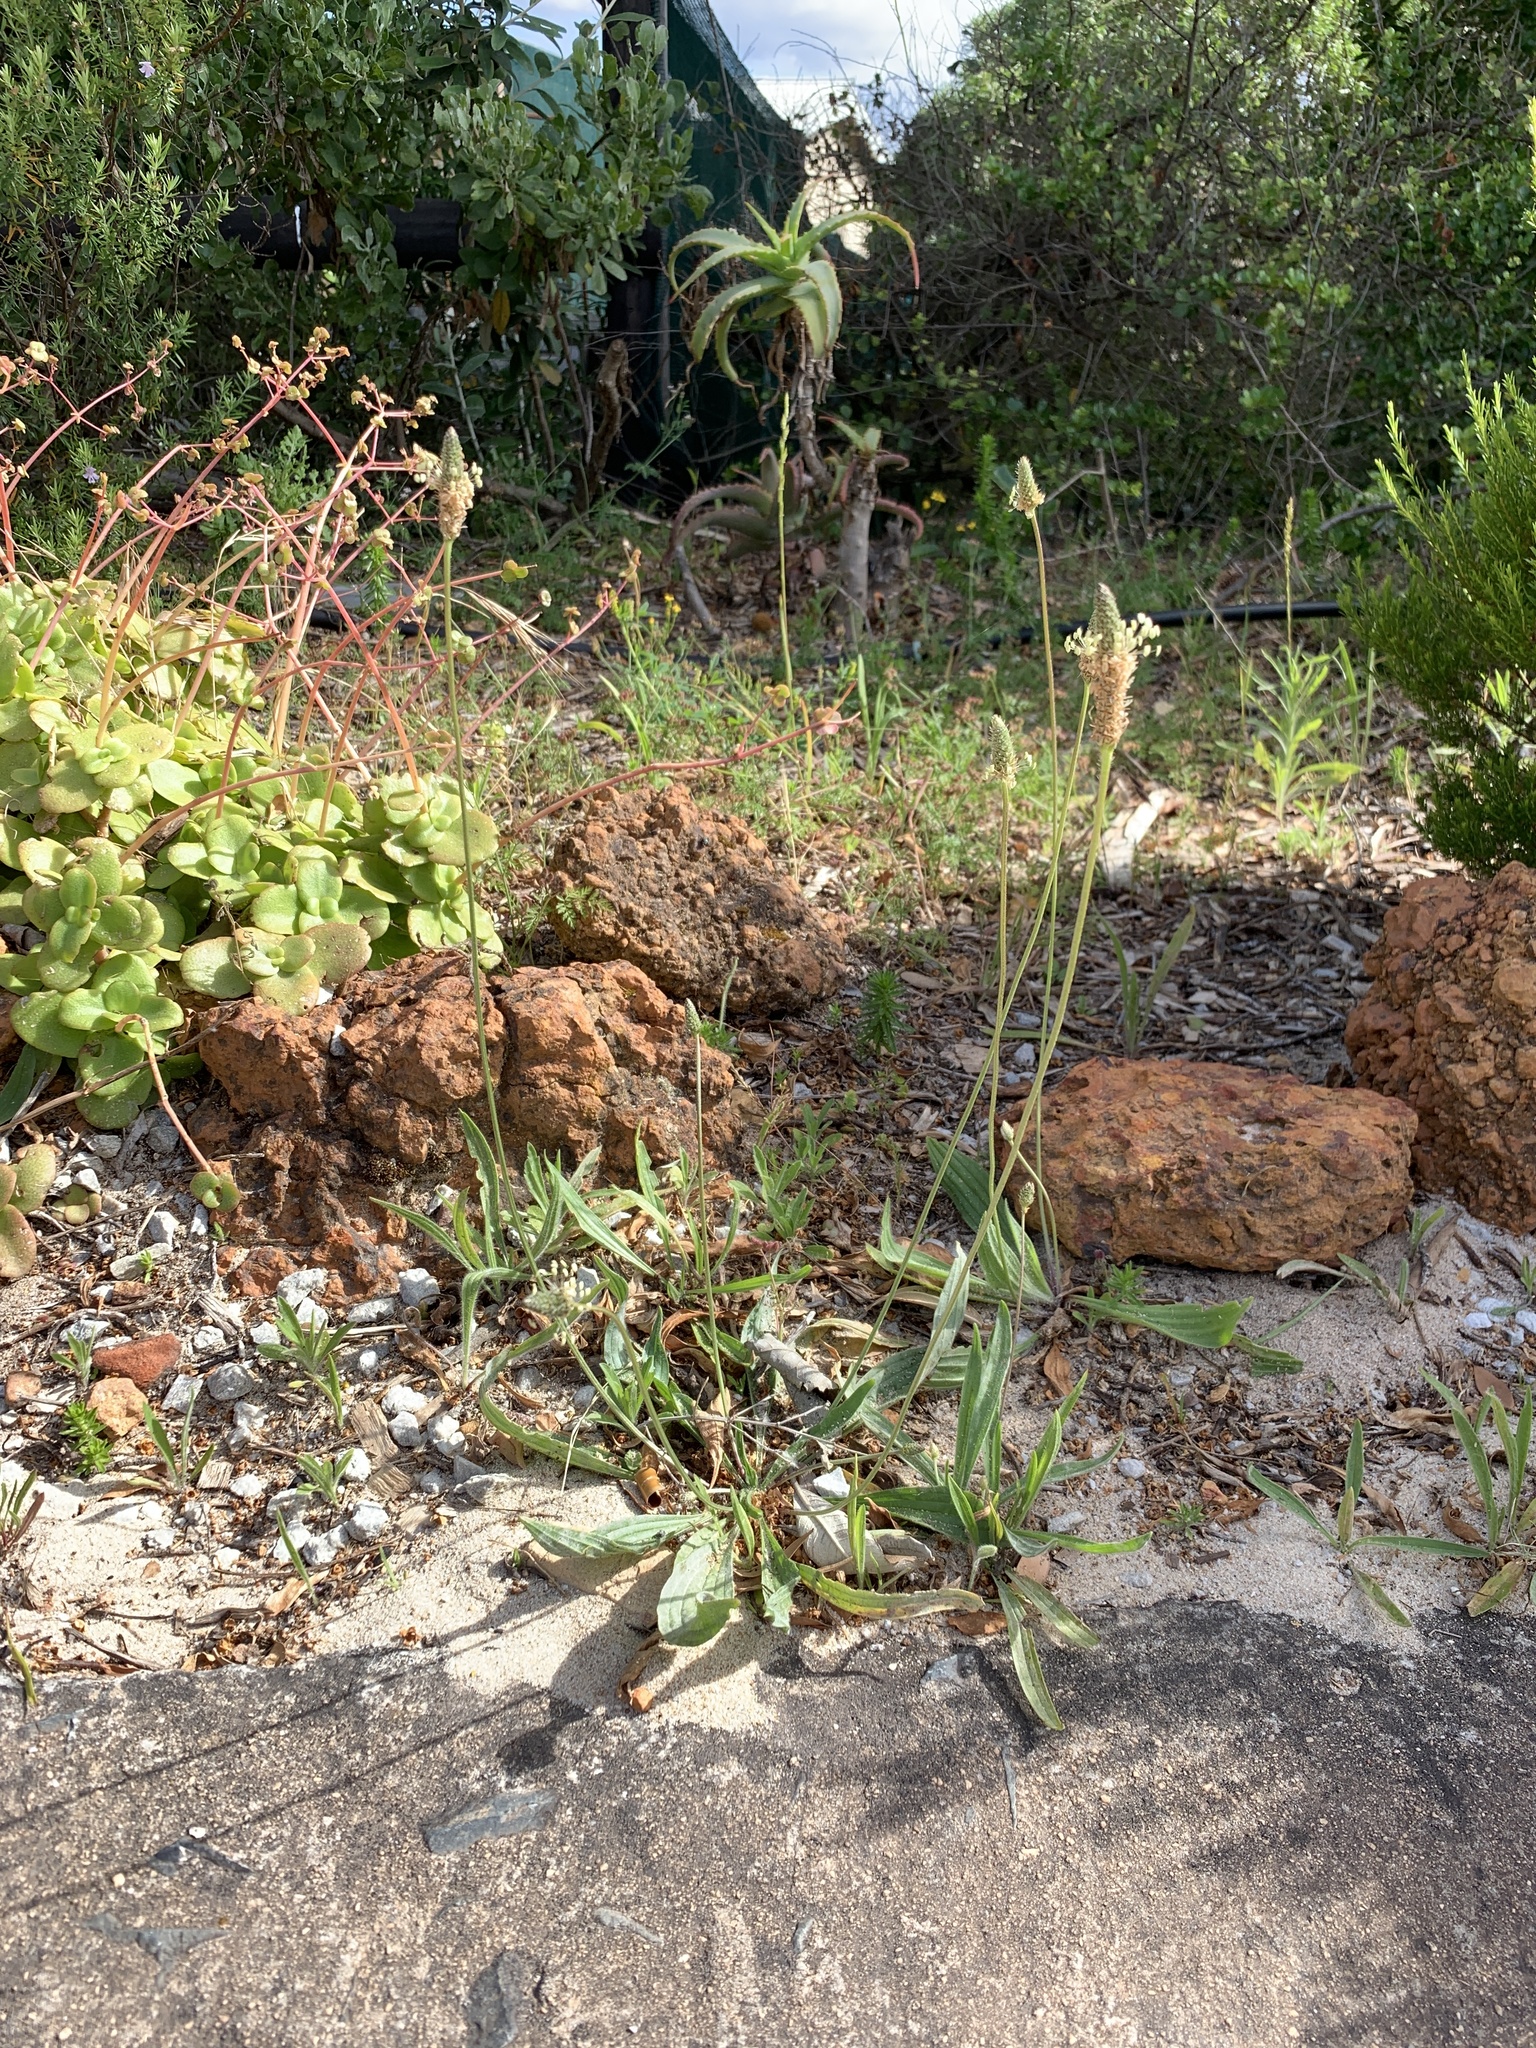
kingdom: Plantae
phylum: Tracheophyta
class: Magnoliopsida
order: Lamiales
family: Plantaginaceae
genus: Plantago
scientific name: Plantago lanceolata
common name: Ribwort plantain
